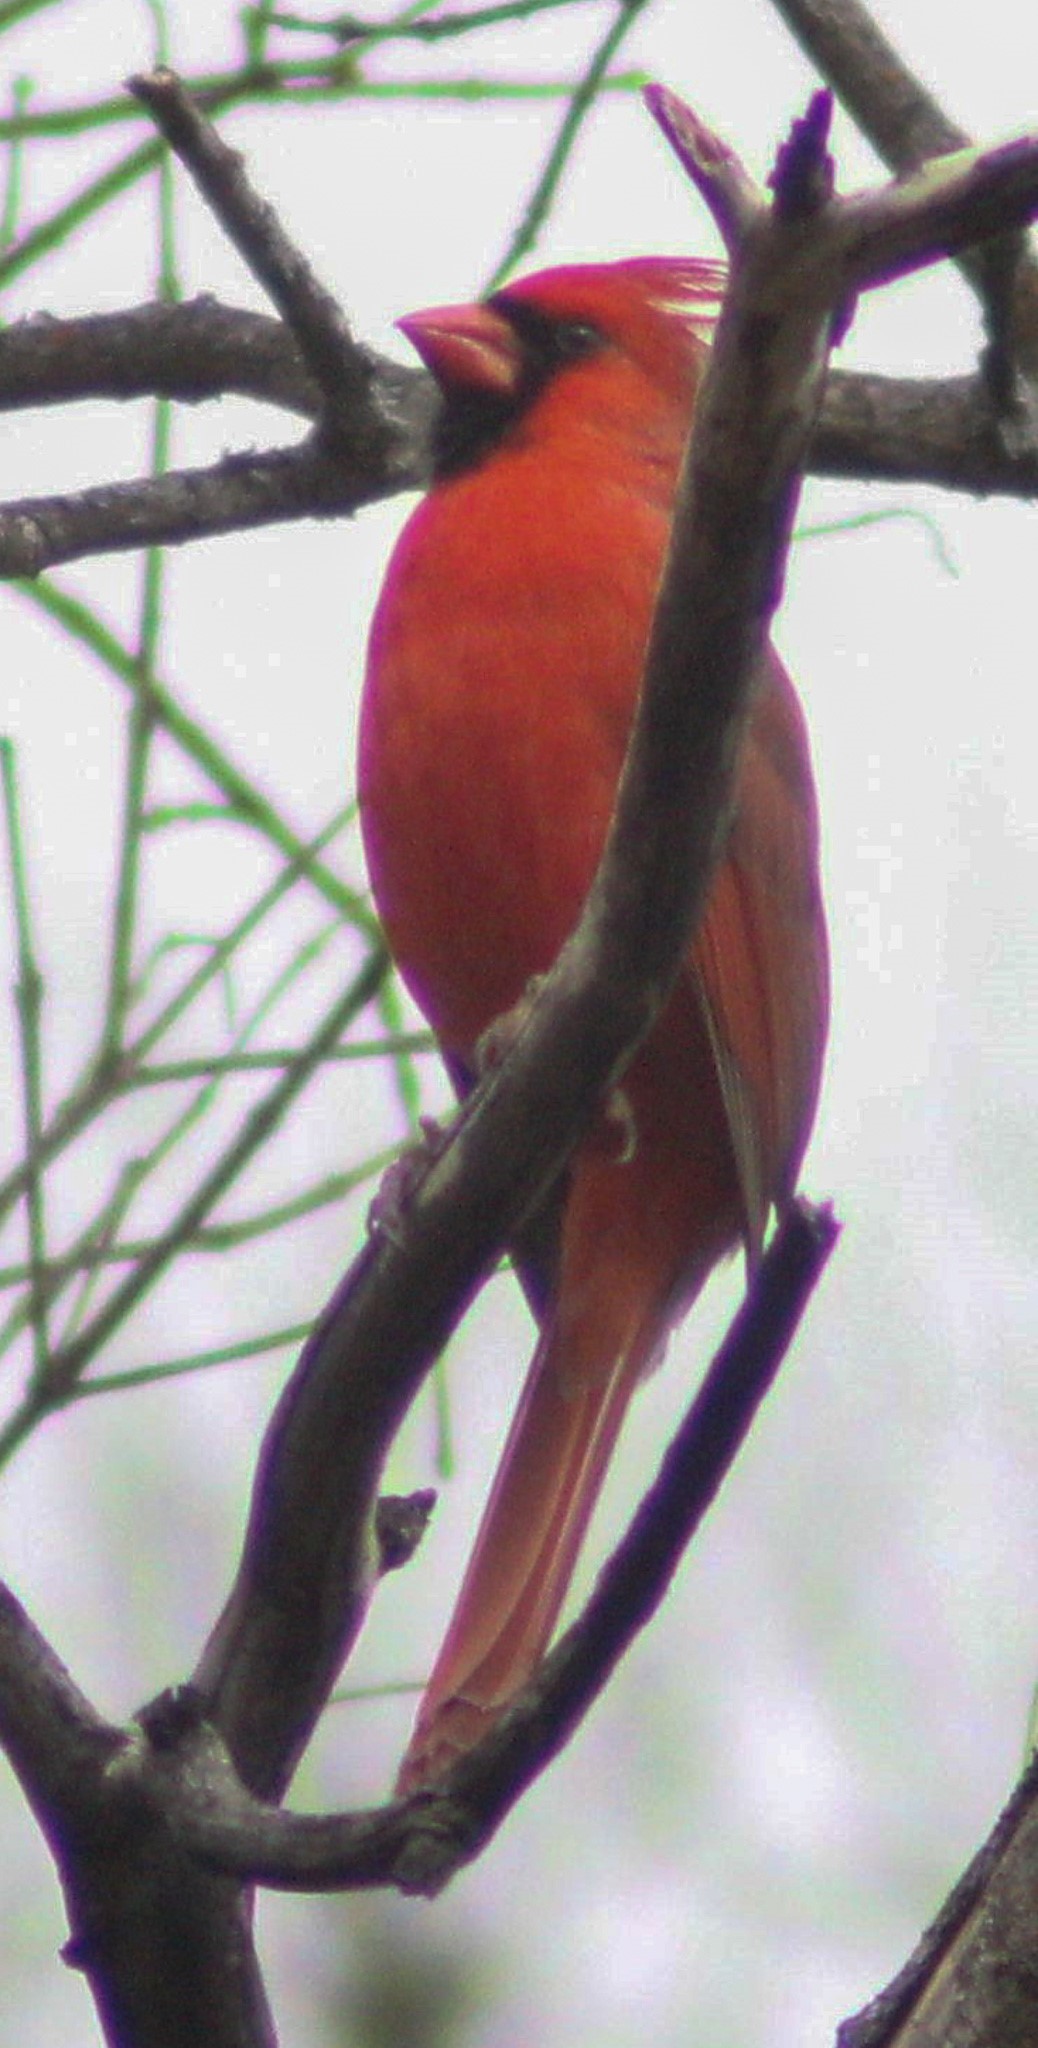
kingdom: Animalia
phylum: Chordata
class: Aves
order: Passeriformes
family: Cardinalidae
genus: Cardinalis
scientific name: Cardinalis cardinalis
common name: Northern cardinal
